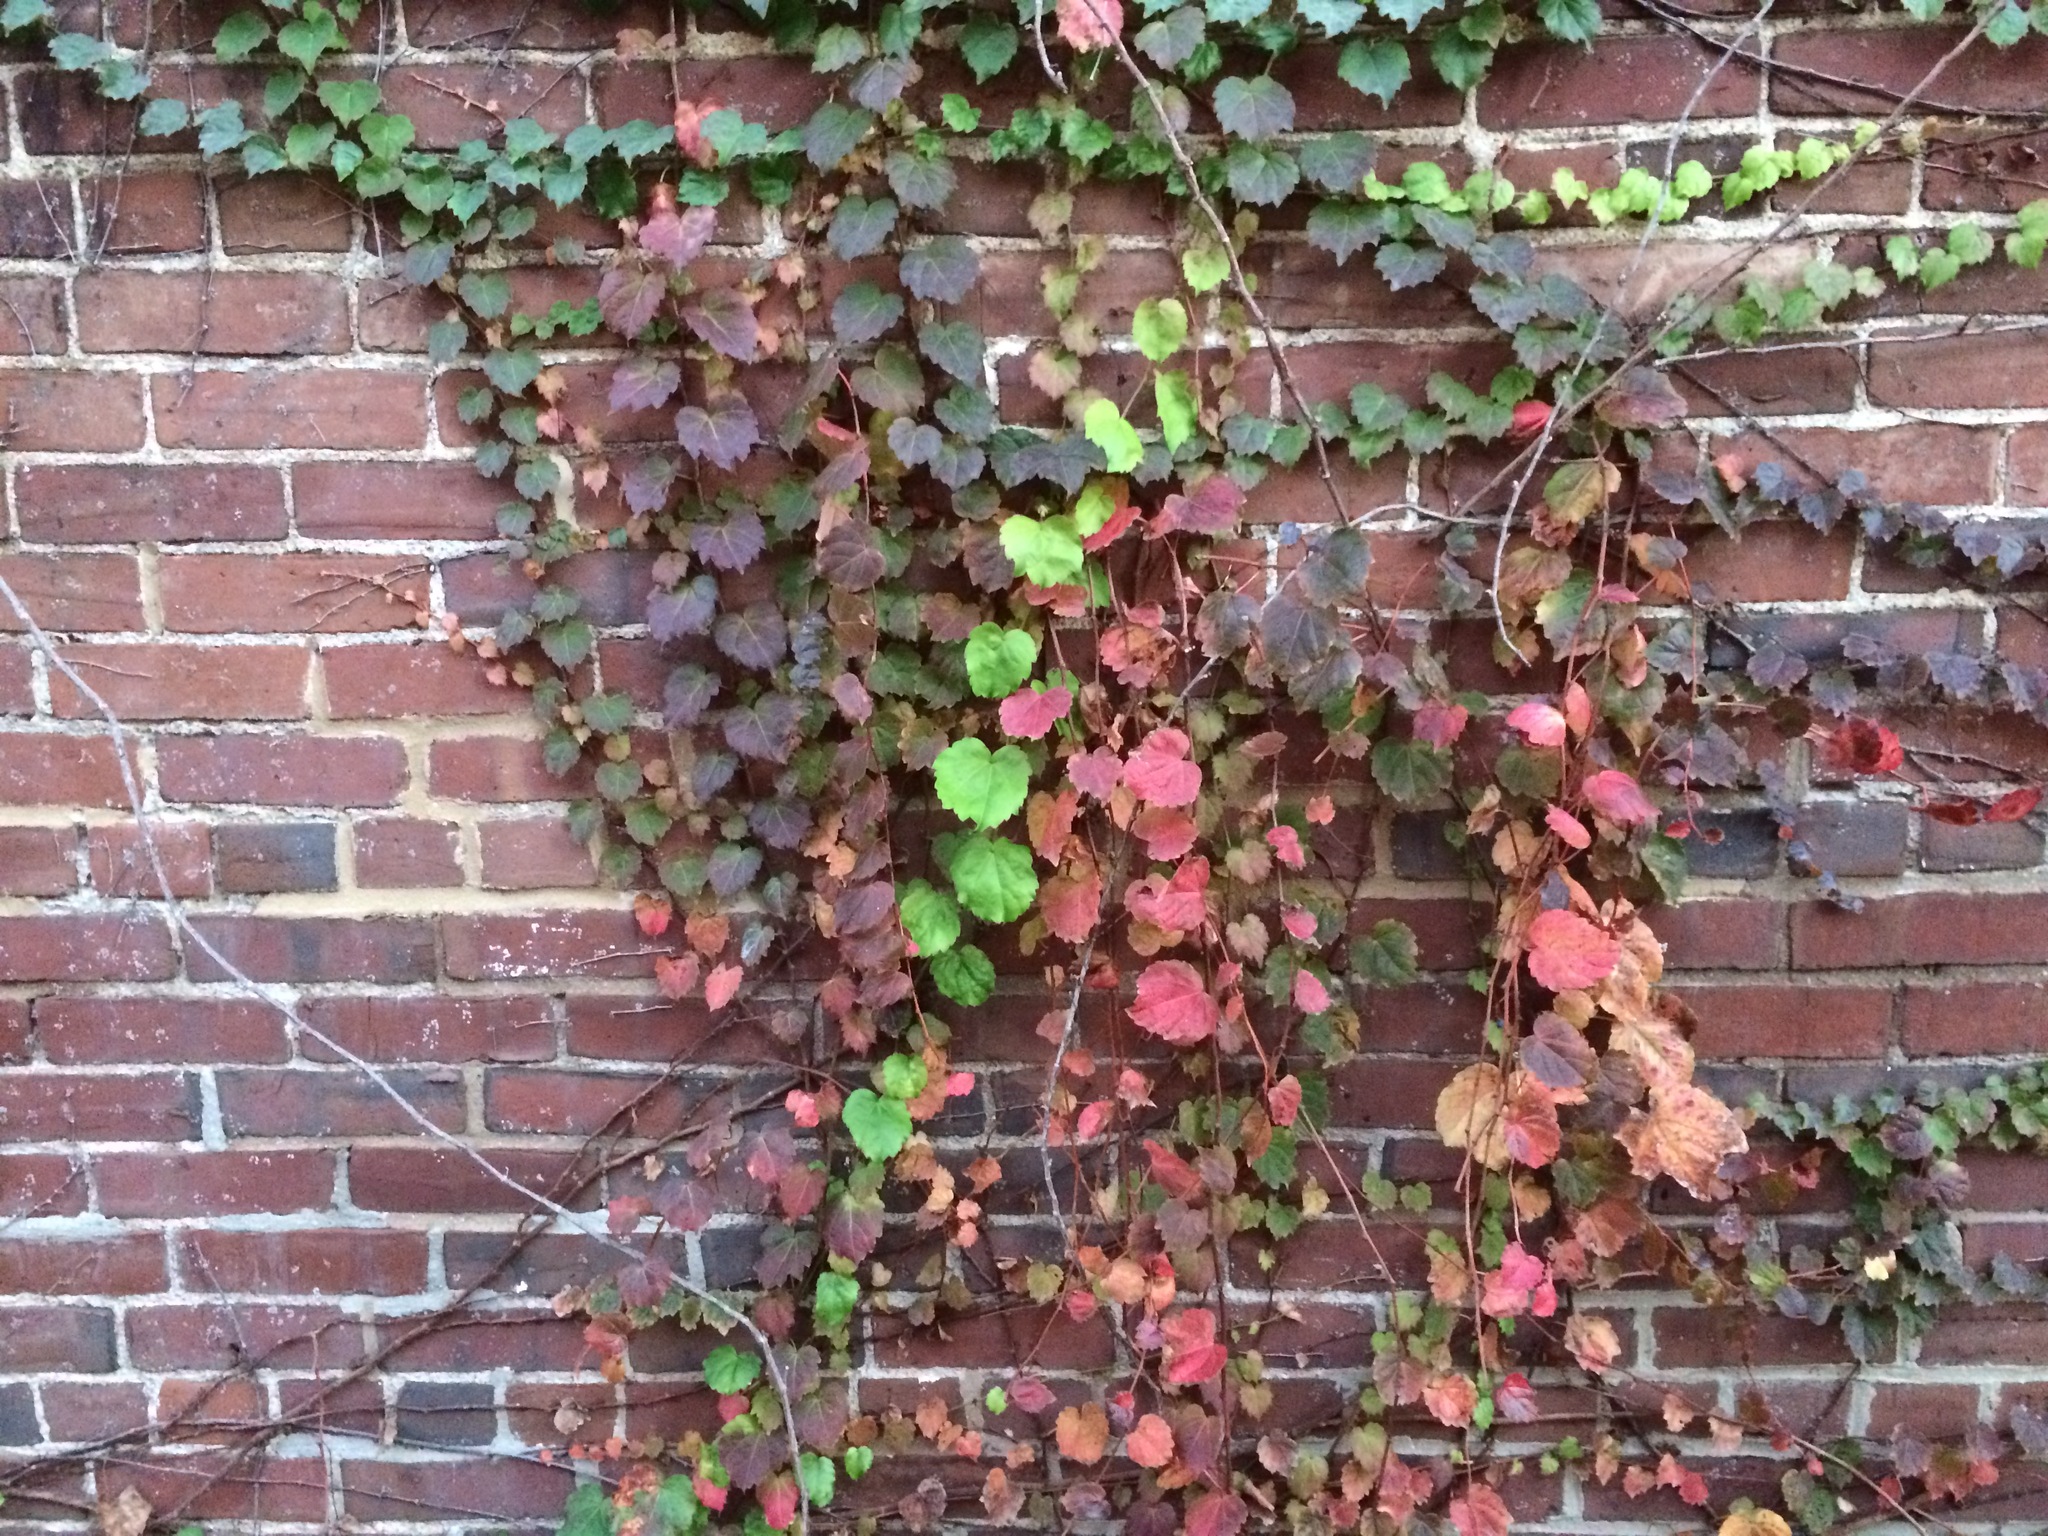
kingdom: Plantae
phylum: Tracheophyta
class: Magnoliopsida
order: Vitales
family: Vitaceae
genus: Parthenocissus
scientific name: Parthenocissus tricuspidata
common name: Boston ivy
